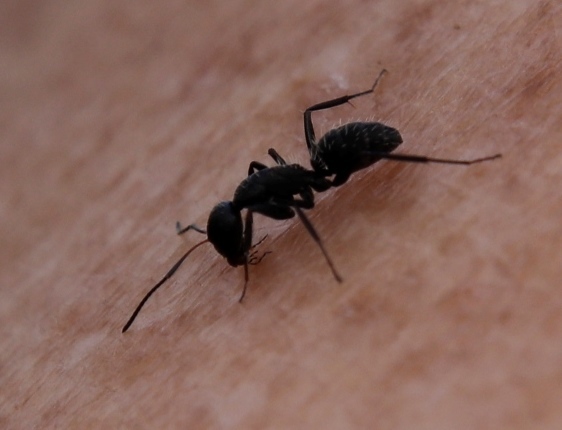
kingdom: Animalia
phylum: Arthropoda
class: Insecta
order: Hymenoptera
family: Formicidae
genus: Camponotus
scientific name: Camponotus niveosetosus
